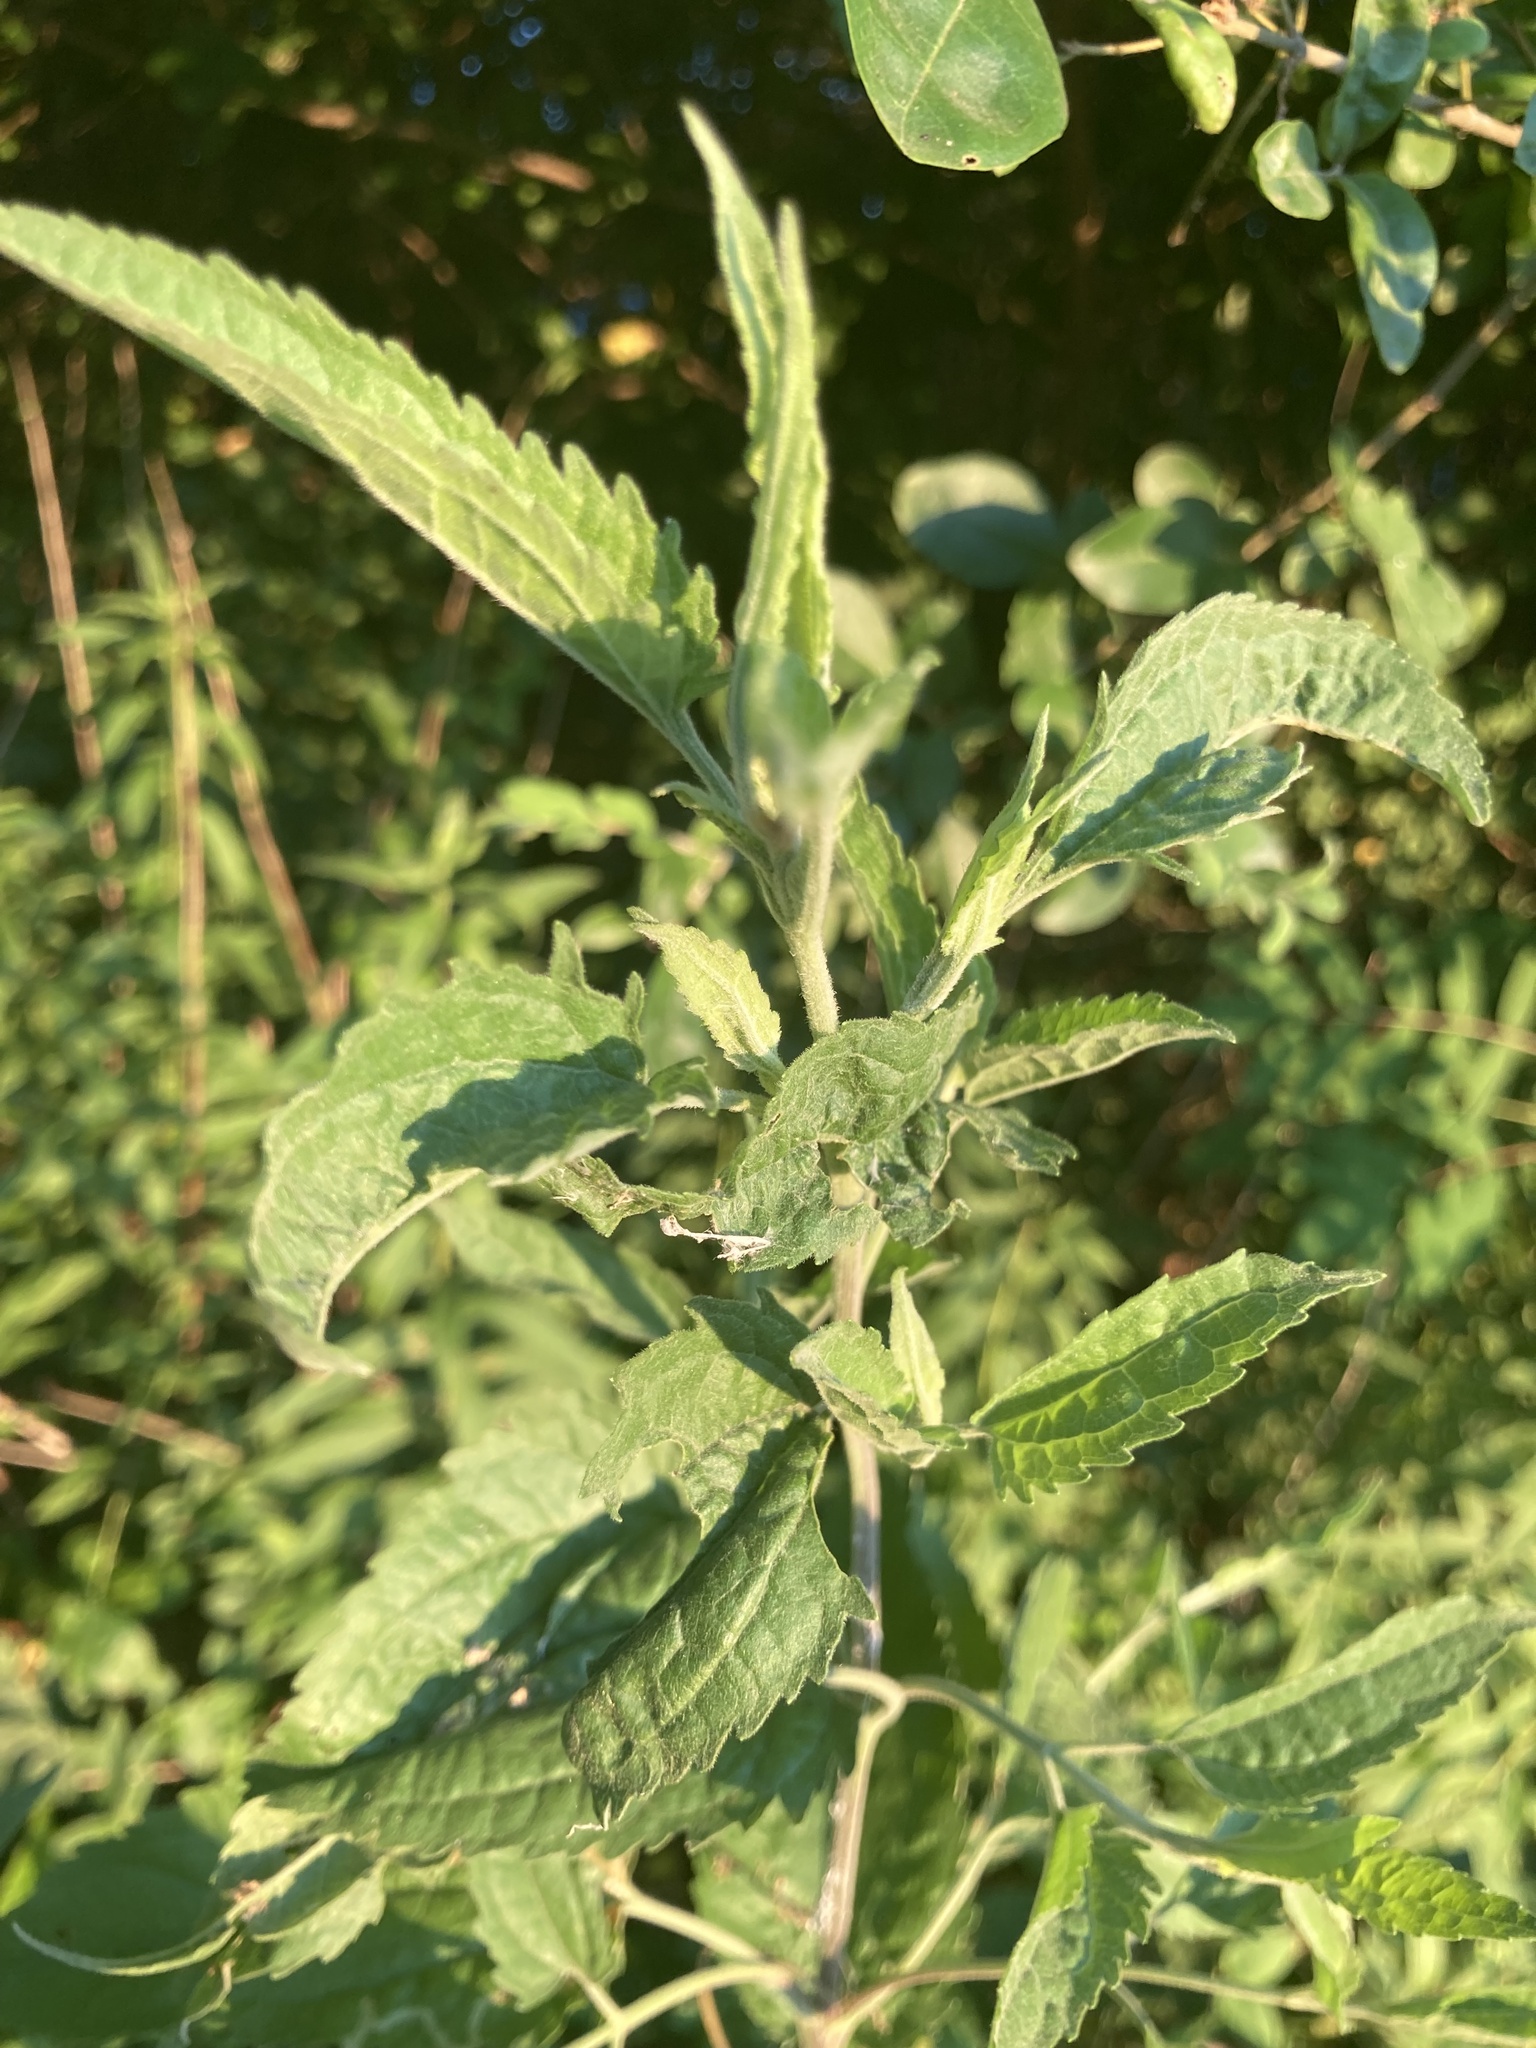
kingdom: Plantae
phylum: Tracheophyta
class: Magnoliopsida
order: Asterales
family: Asteraceae
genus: Eupatorium
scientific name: Eupatorium serotinum
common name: Late boneset
